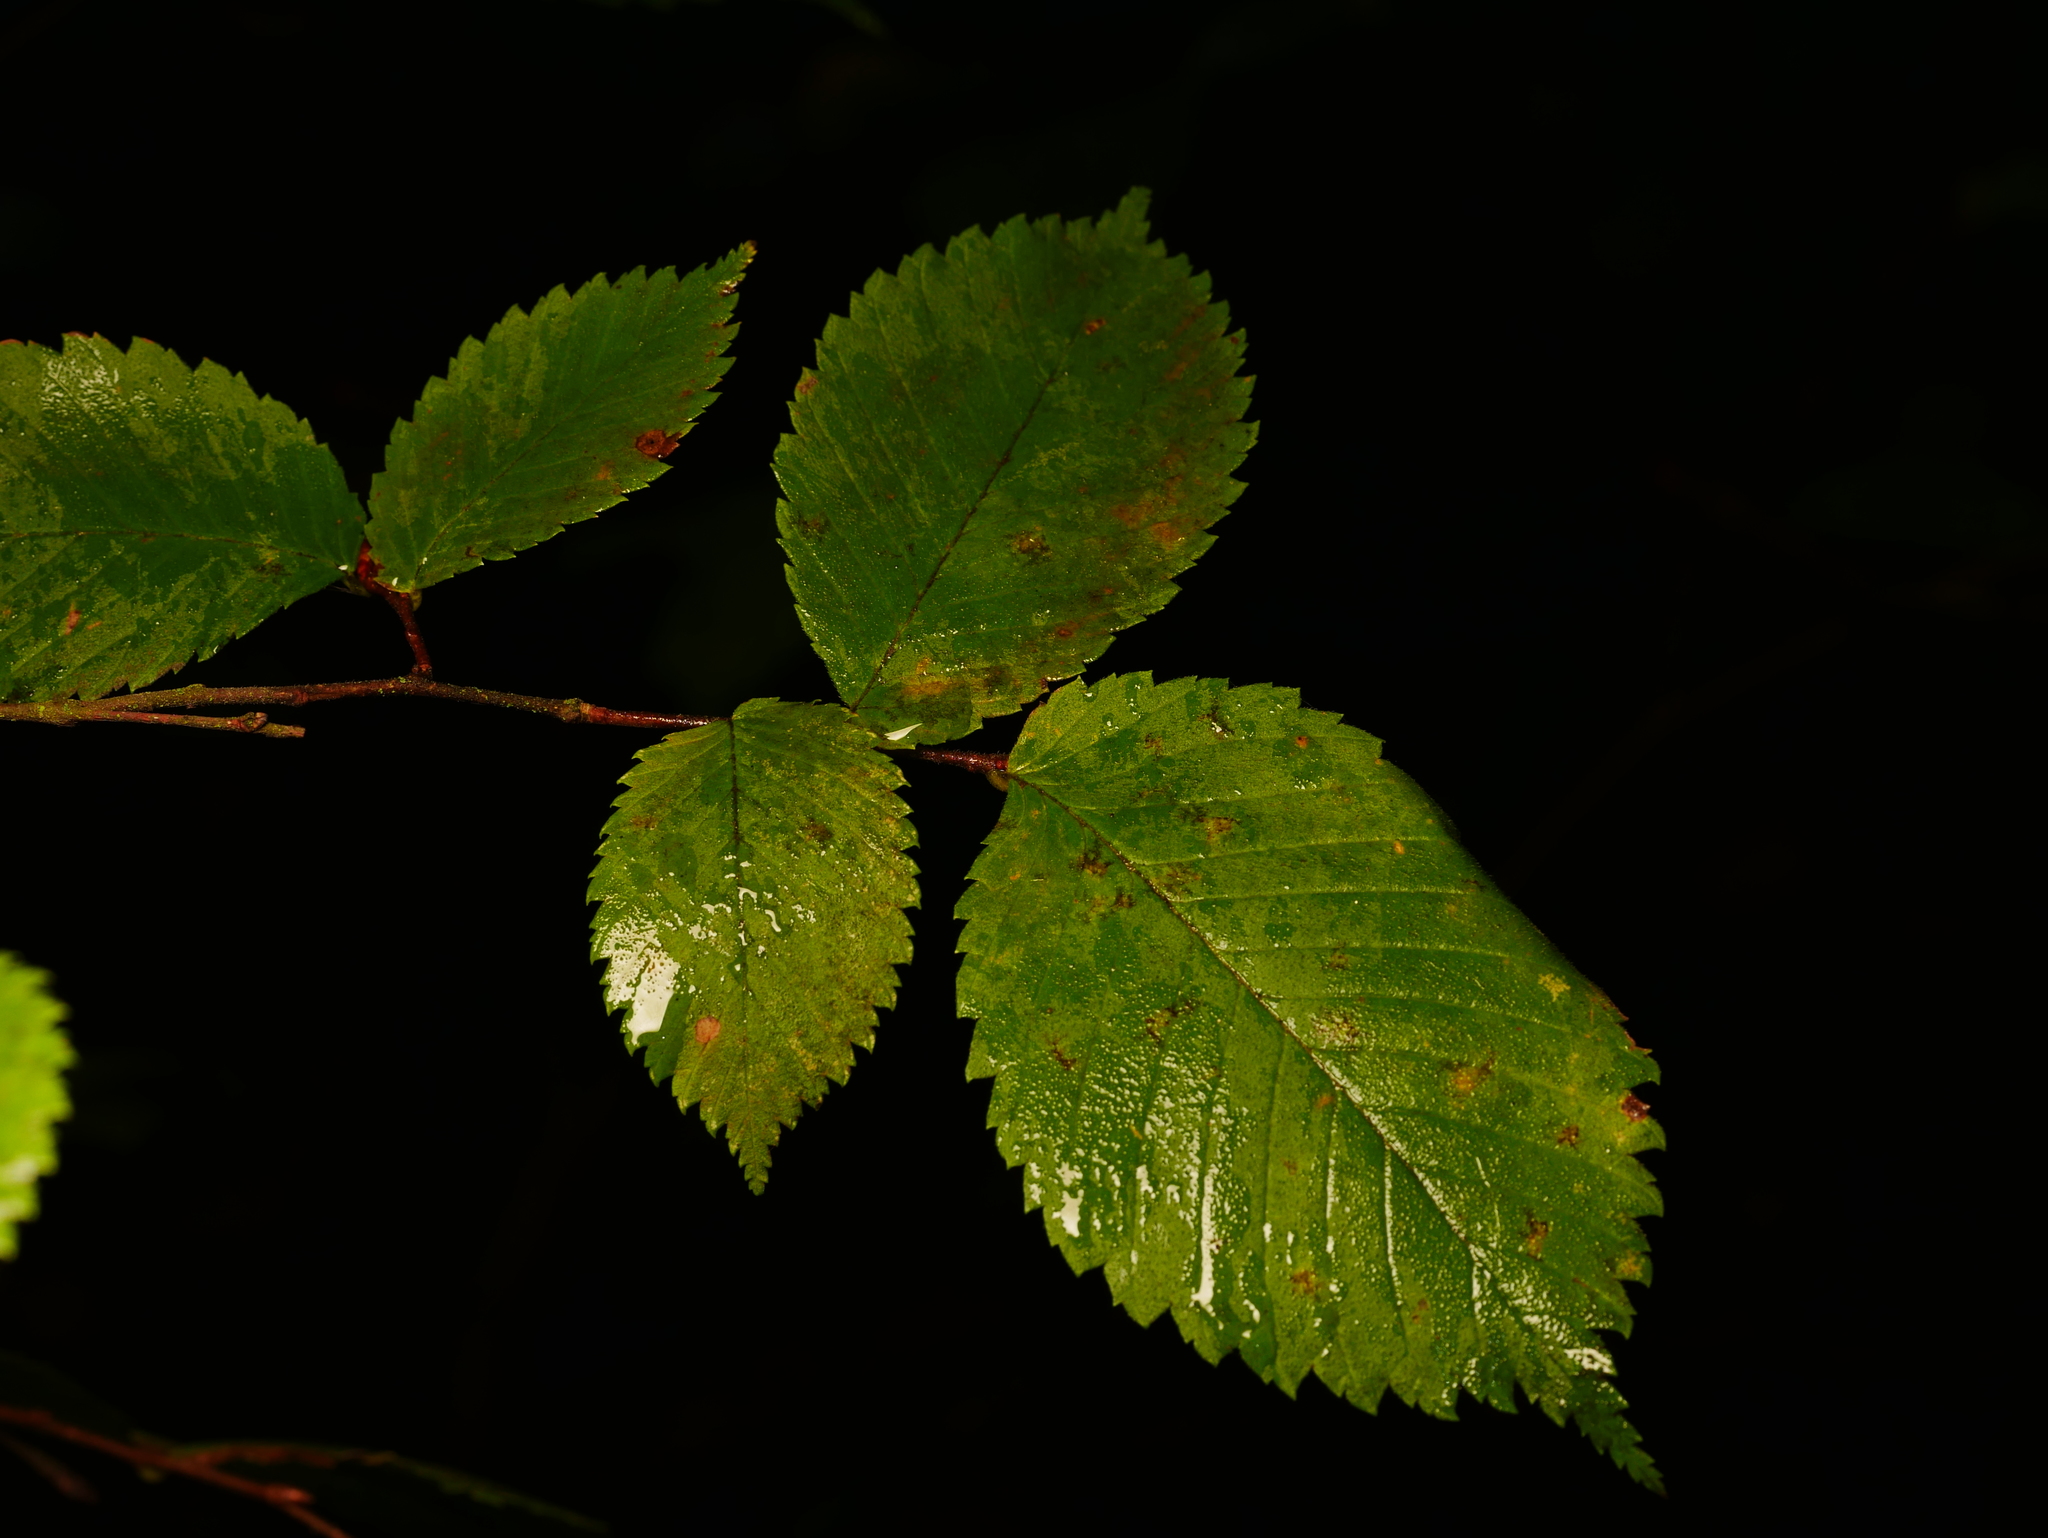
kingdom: Plantae
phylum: Tracheophyta
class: Magnoliopsida
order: Rosales
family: Ulmaceae
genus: Ulmus
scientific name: Ulmus minor
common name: Small-leaved elm
